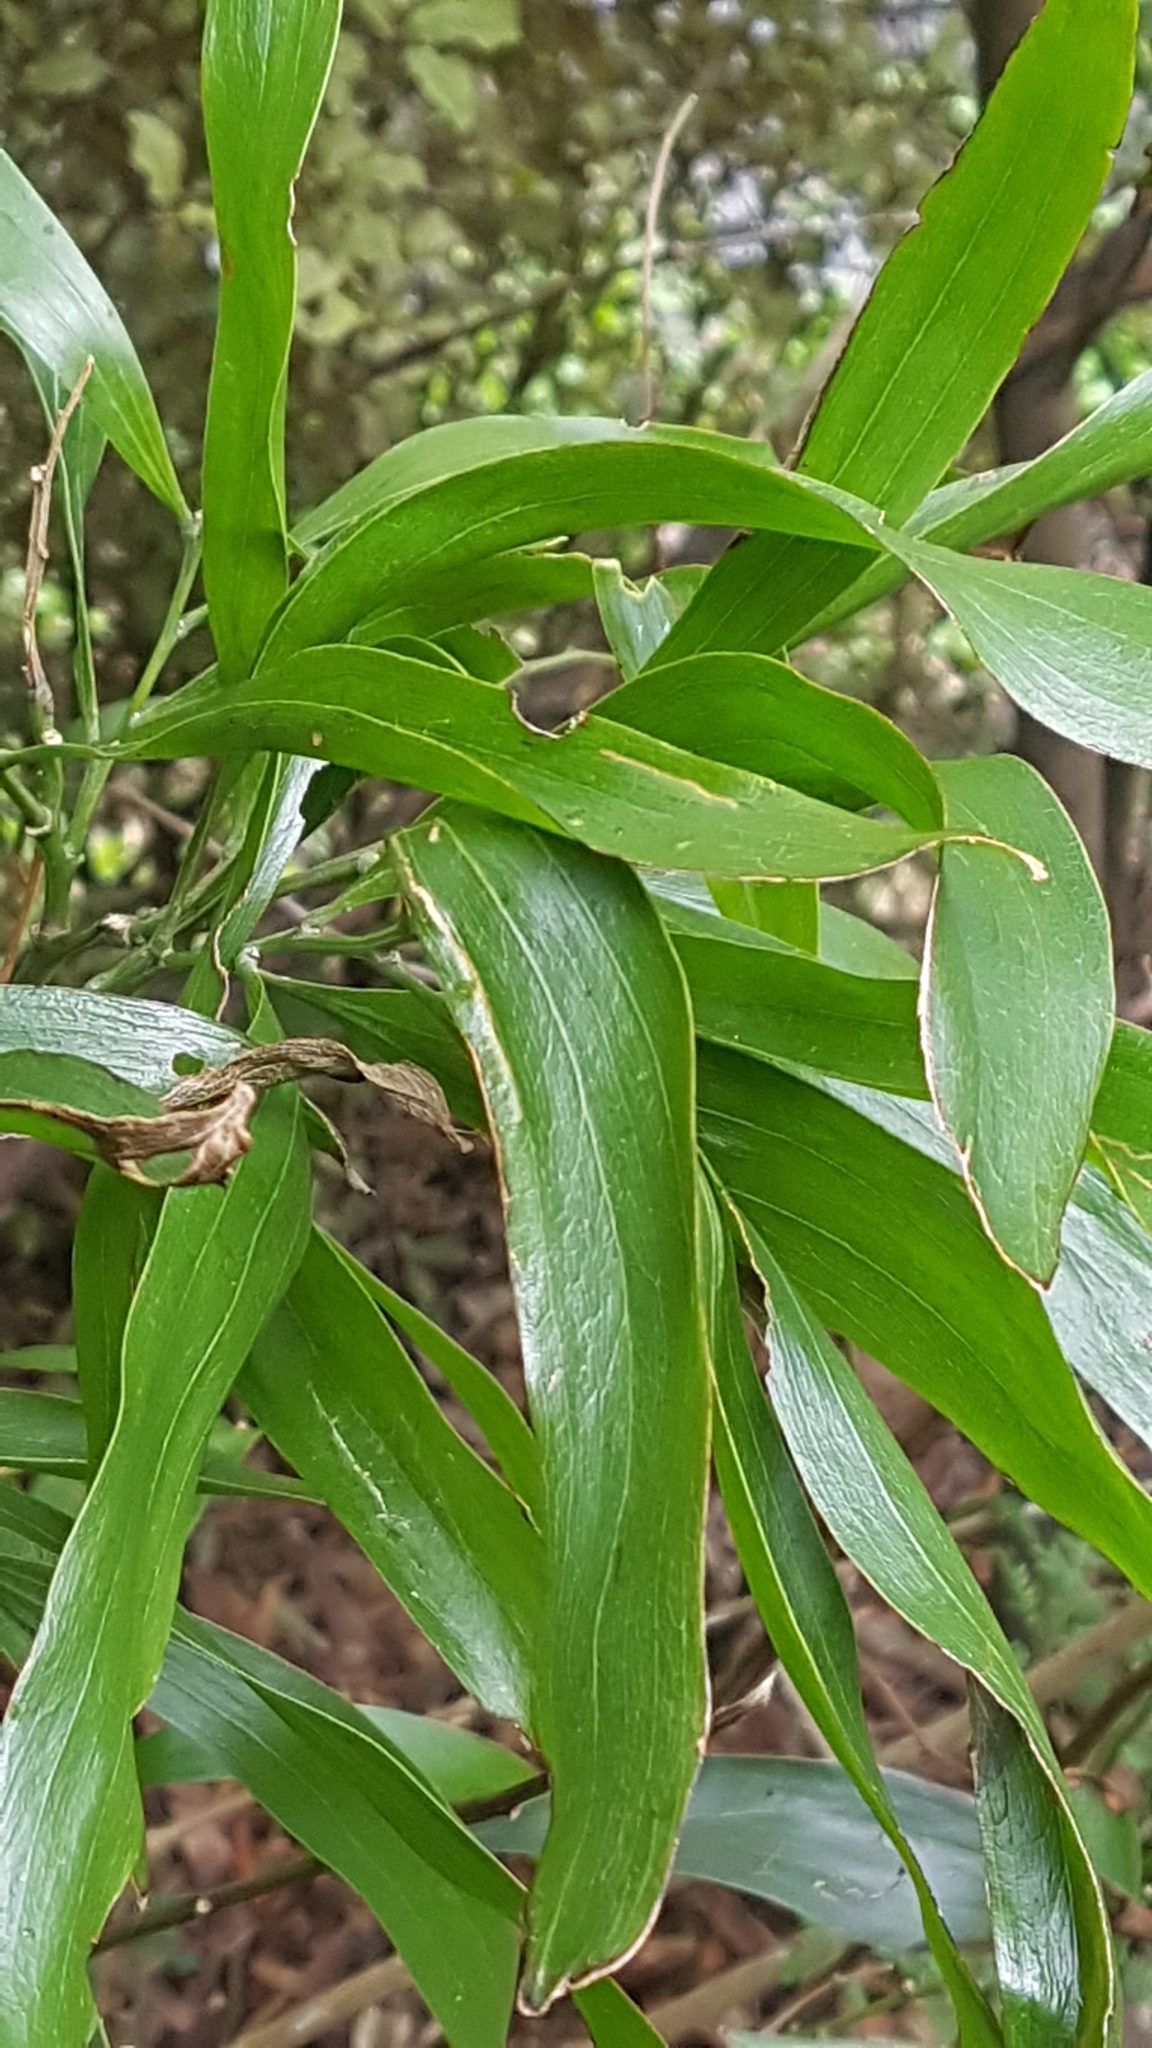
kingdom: Plantae
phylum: Tracheophyta
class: Magnoliopsida
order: Fabales
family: Fabaceae
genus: Acacia
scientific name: Acacia melanoxylon
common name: Blackwood
